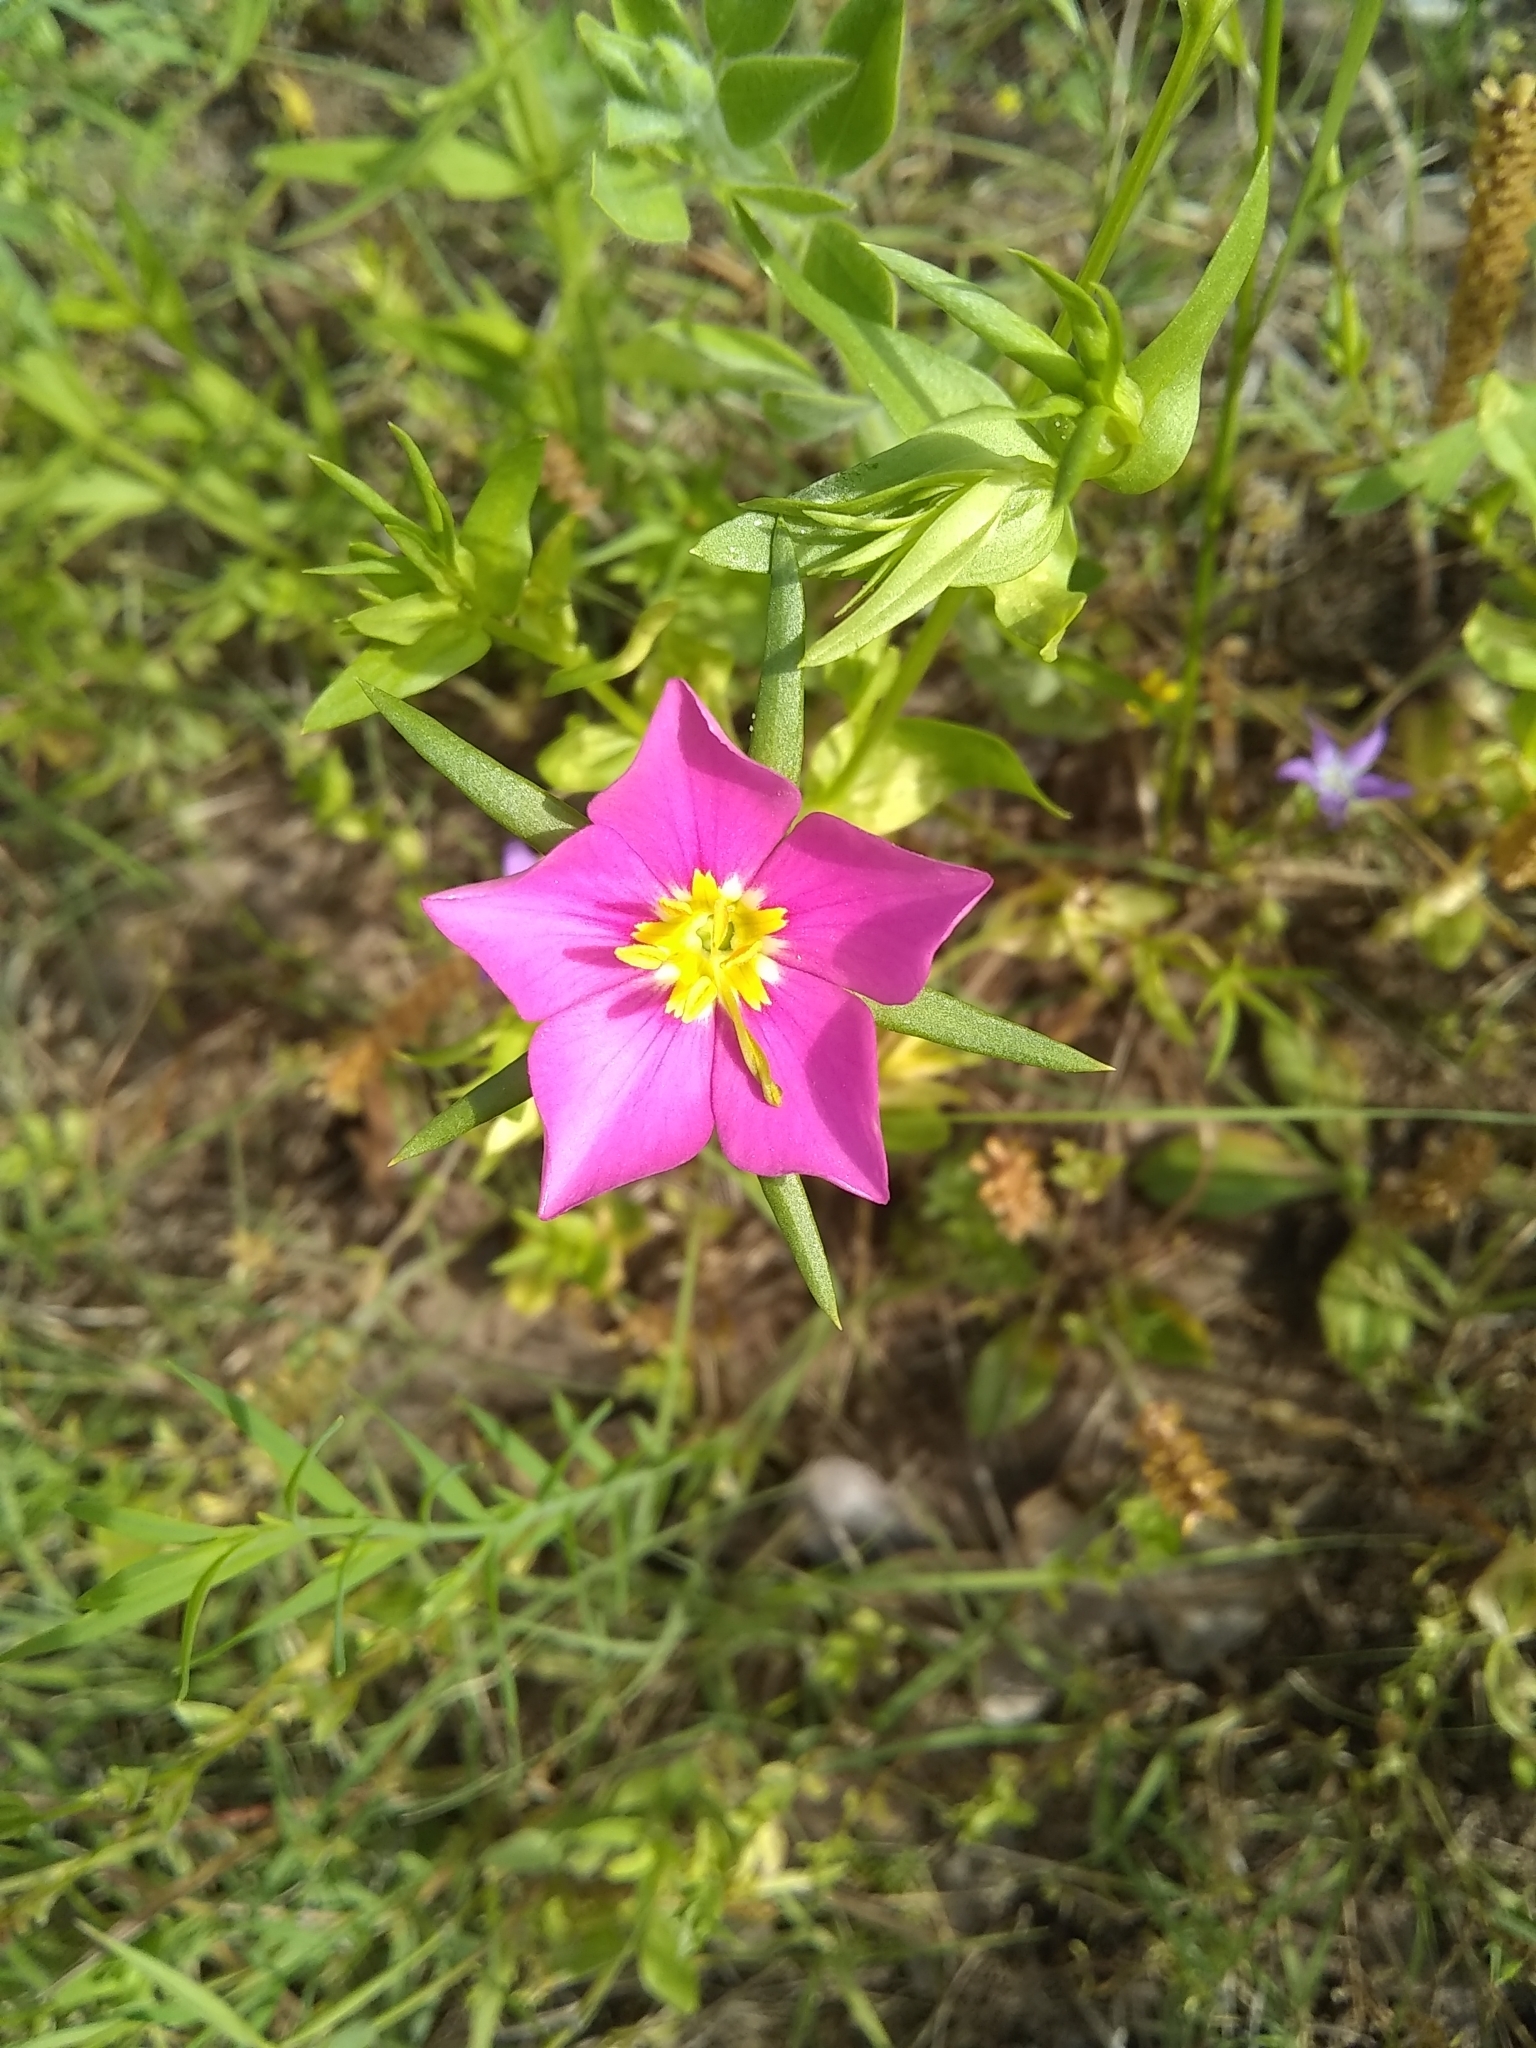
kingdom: Plantae
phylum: Tracheophyta
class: Magnoliopsida
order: Gentianales
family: Gentianaceae
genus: Sabatia
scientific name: Sabatia campestris
